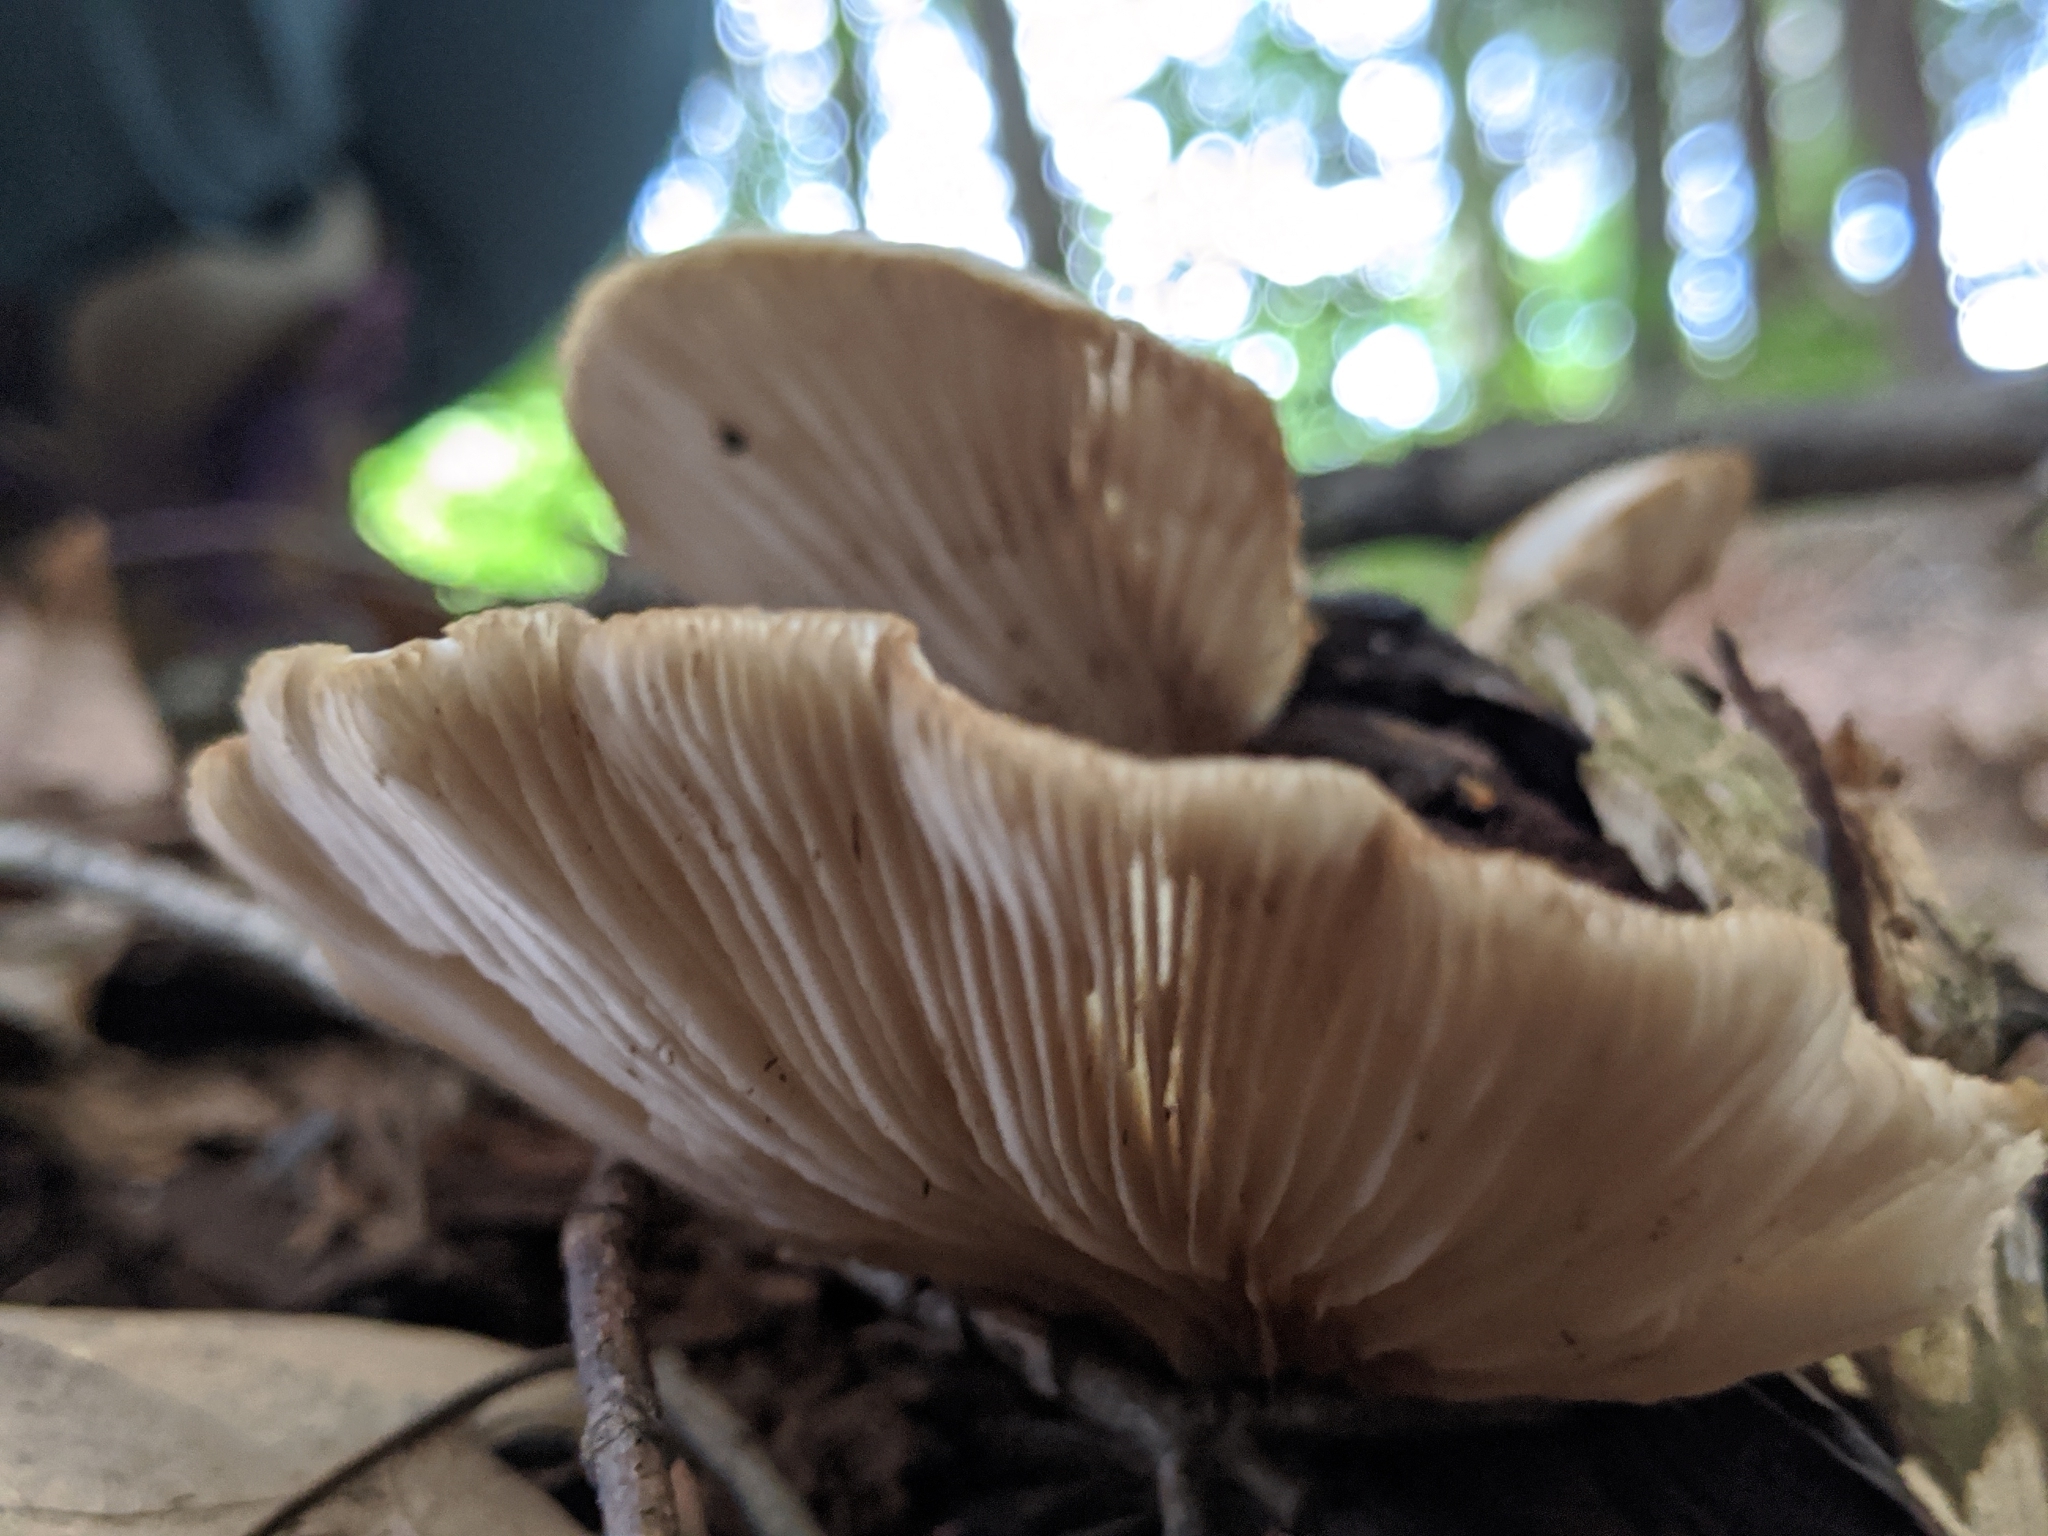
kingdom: Fungi
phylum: Basidiomycota
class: Agaricomycetes
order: Agaricales
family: Crepidotaceae
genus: Crepidotus
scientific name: Crepidotus applanatus
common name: Flat crep
